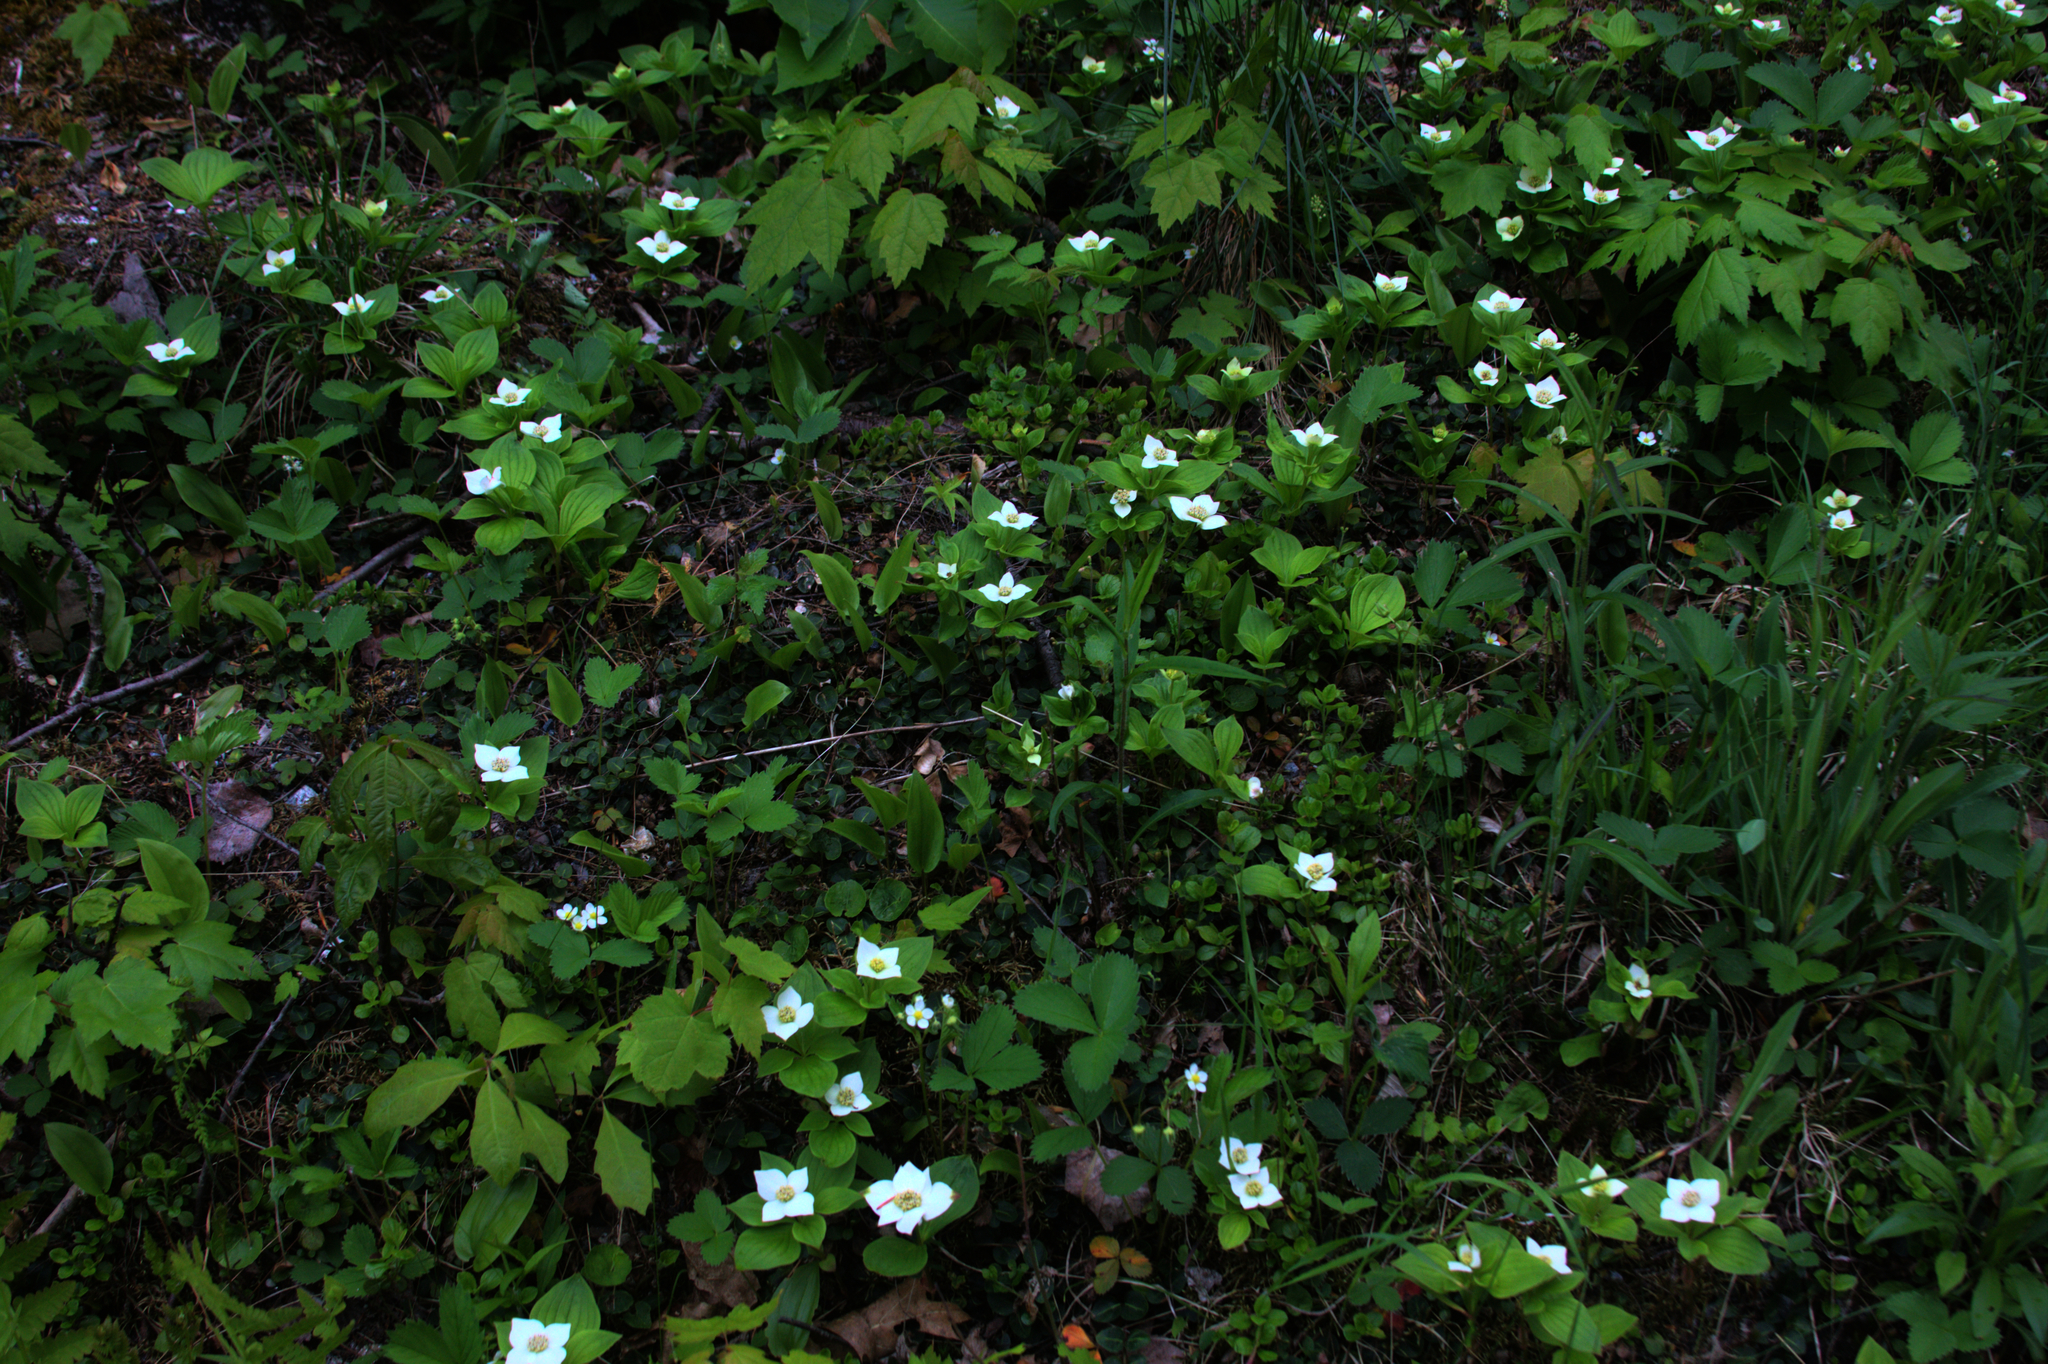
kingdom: Plantae
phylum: Tracheophyta
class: Magnoliopsida
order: Cornales
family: Cornaceae
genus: Cornus
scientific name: Cornus canadensis
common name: Creeping dogwood
